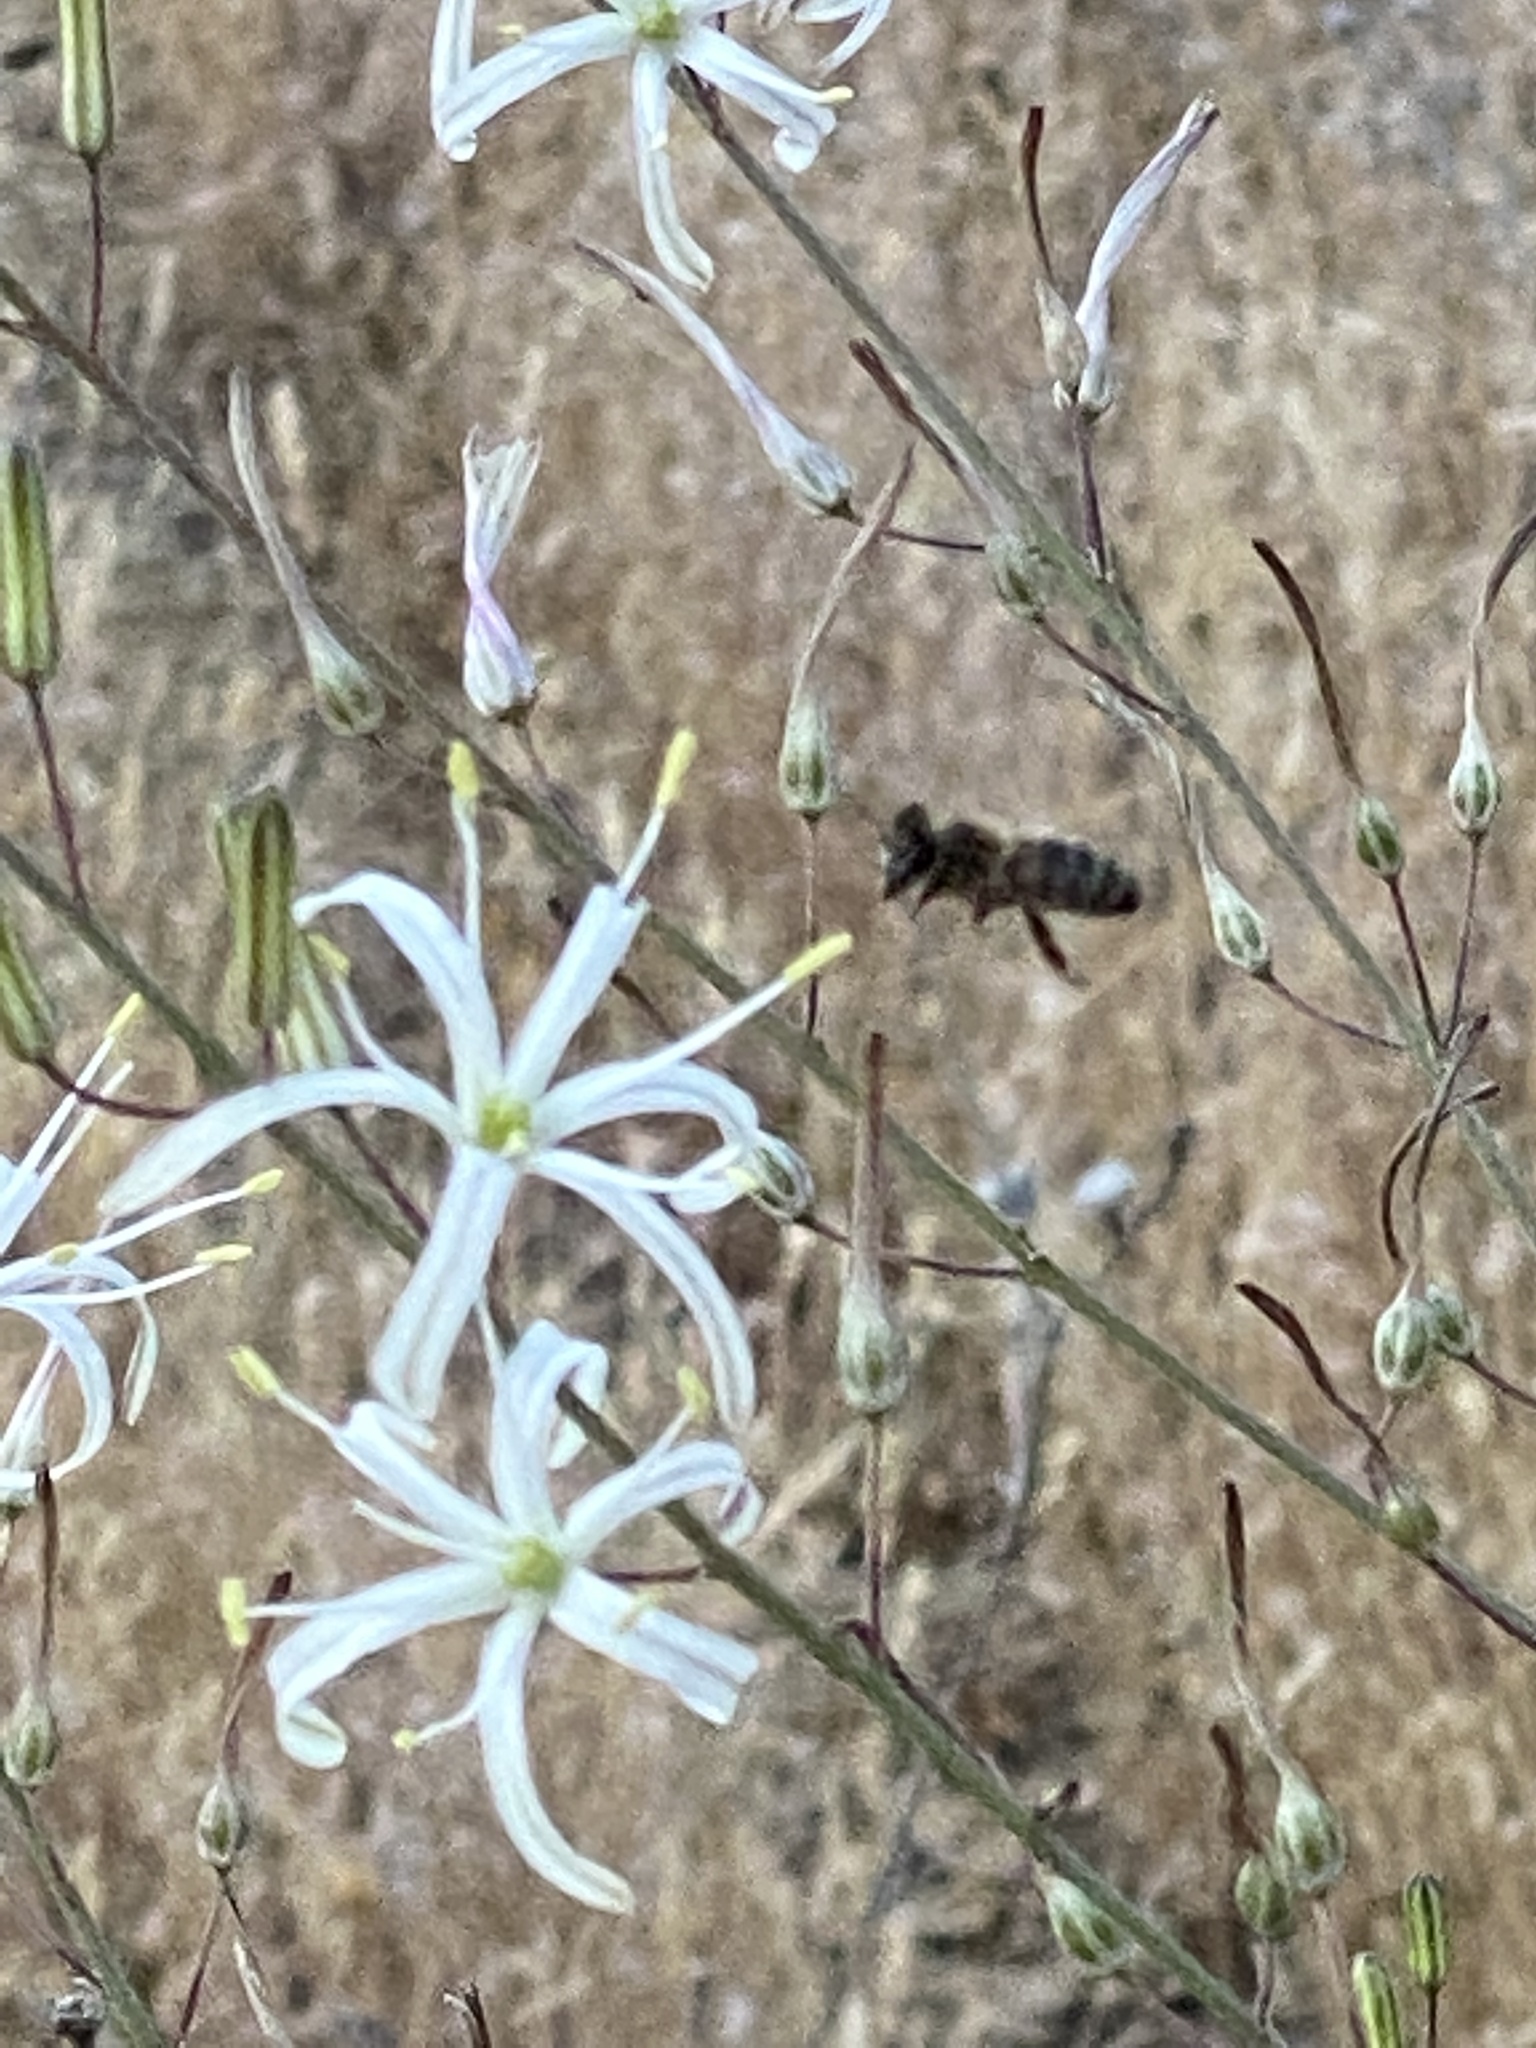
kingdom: Plantae
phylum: Tracheophyta
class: Liliopsida
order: Asparagales
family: Asparagaceae
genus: Chlorogalum
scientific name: Chlorogalum pomeridianum
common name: Amole
